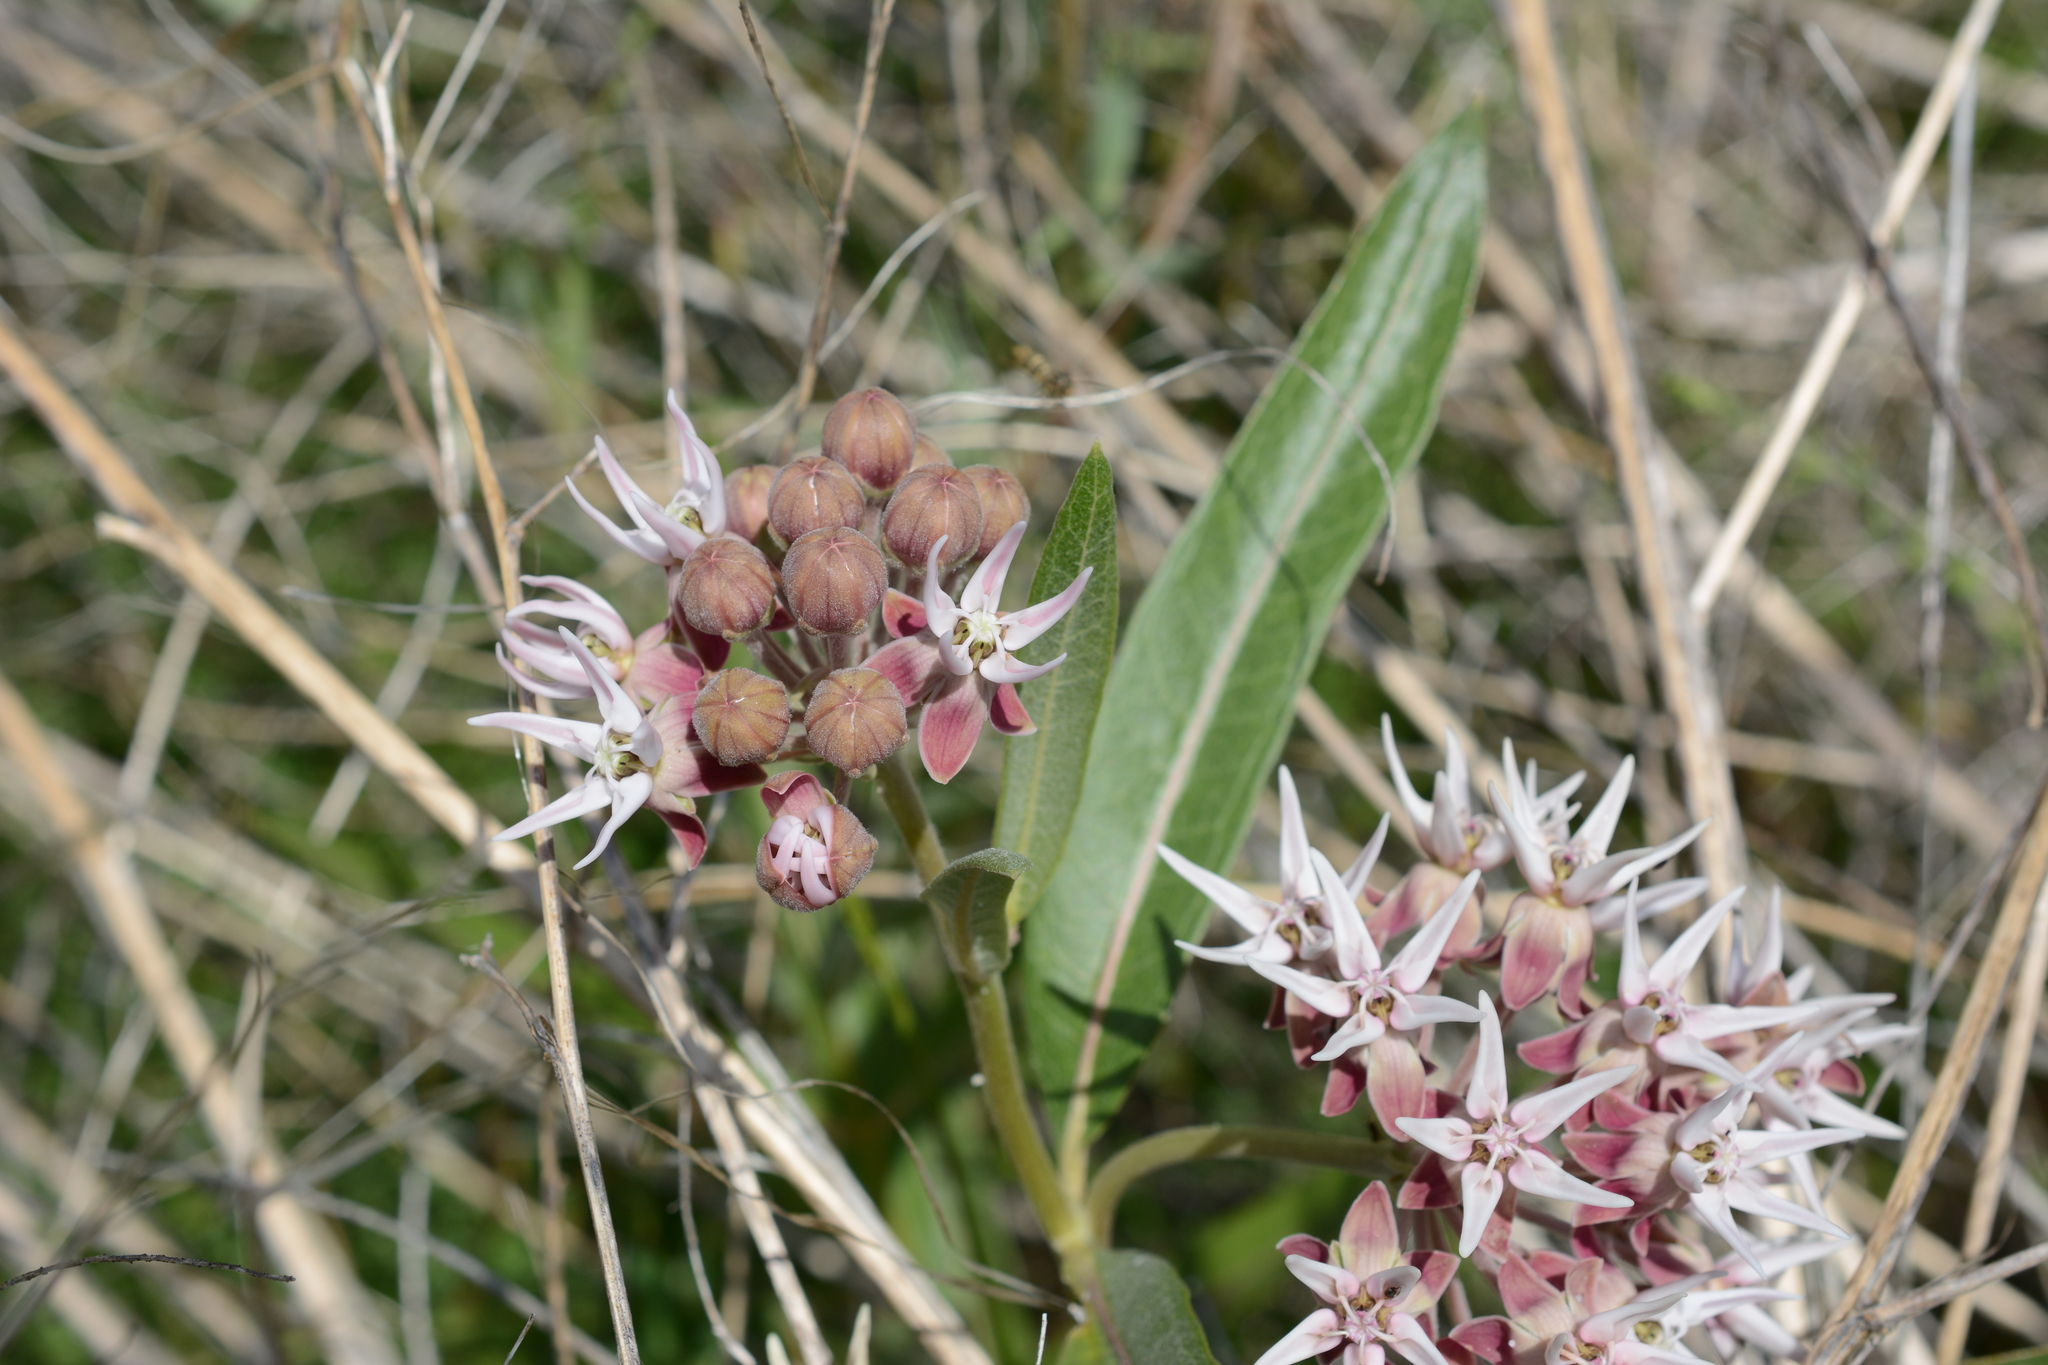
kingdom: Plantae
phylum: Tracheophyta
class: Magnoliopsida
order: Gentianales
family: Apocynaceae
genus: Asclepias
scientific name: Asclepias speciosa
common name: Showy milkweed
